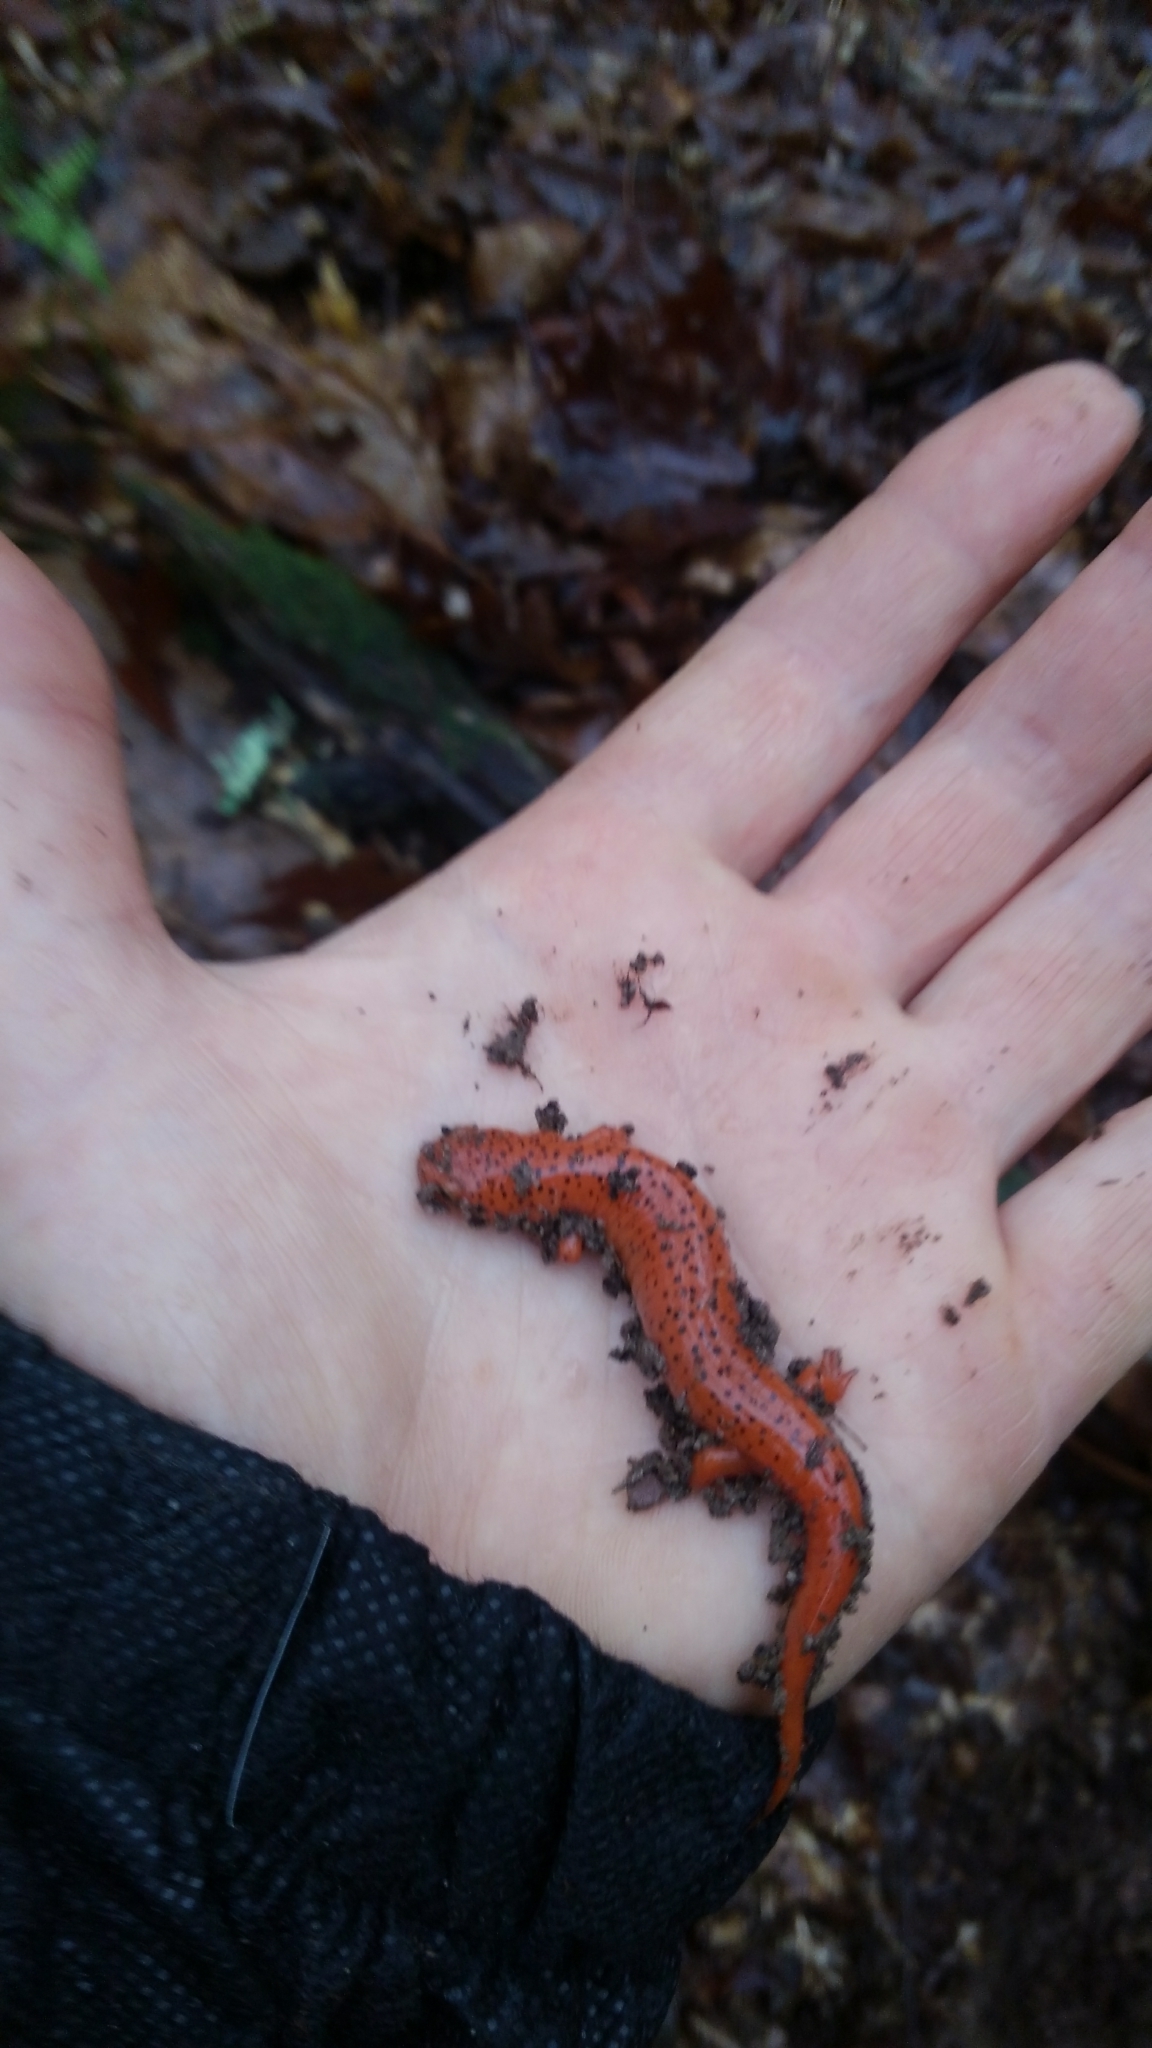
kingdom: Animalia
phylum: Chordata
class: Amphibia
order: Caudata
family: Plethodontidae
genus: Pseudotriton
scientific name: Pseudotriton ruber
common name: Red salamander
